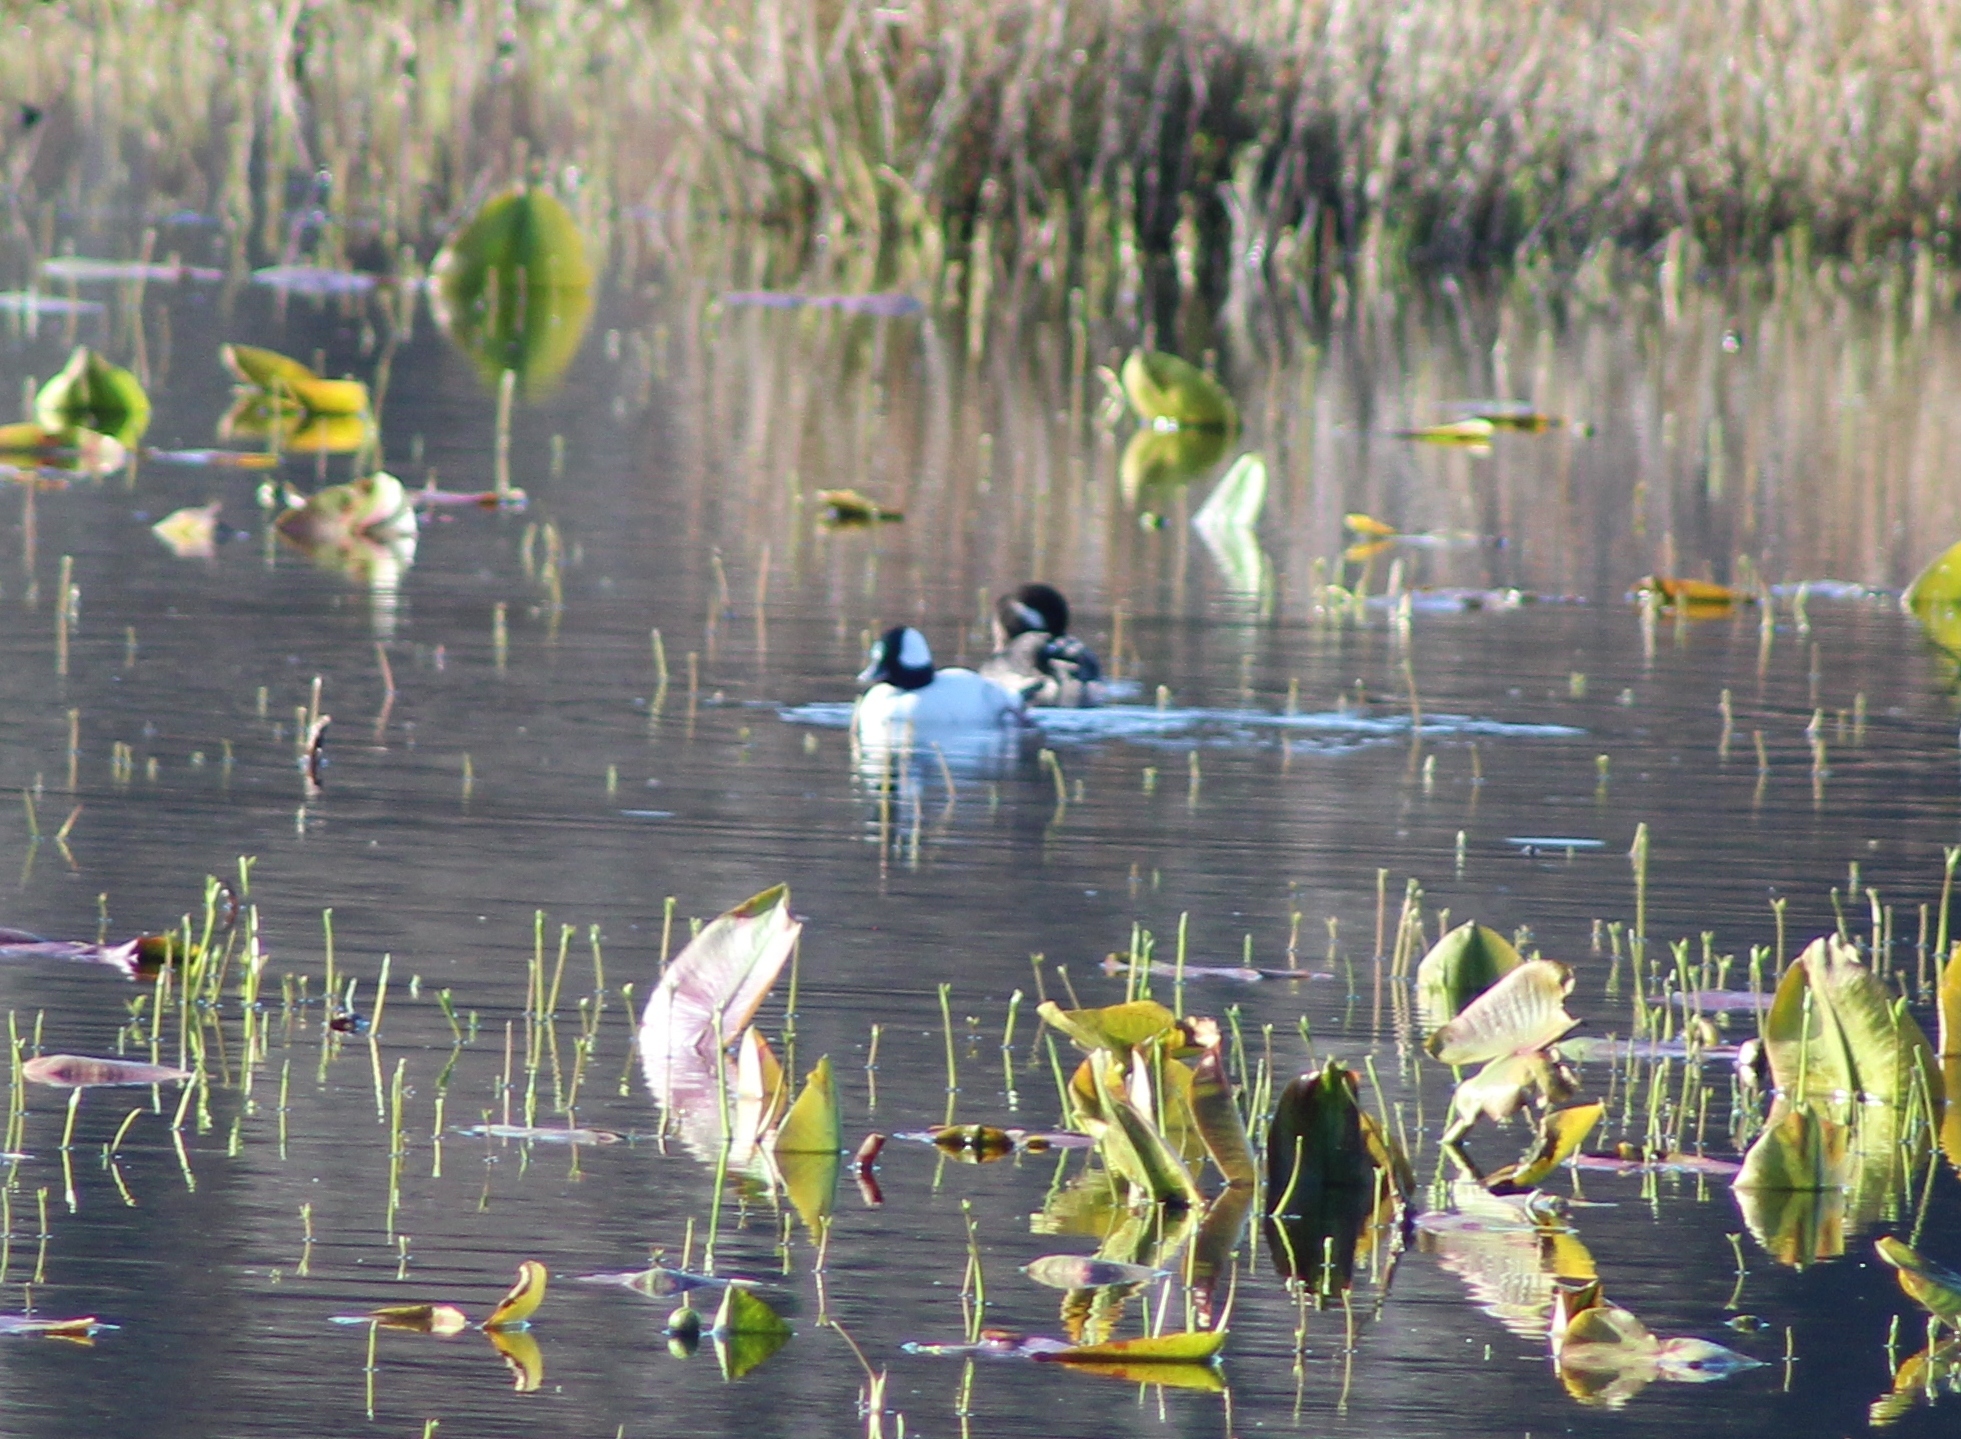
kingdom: Animalia
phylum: Chordata
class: Aves
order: Anseriformes
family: Anatidae
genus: Bucephala
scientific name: Bucephala albeola
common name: Bufflehead
